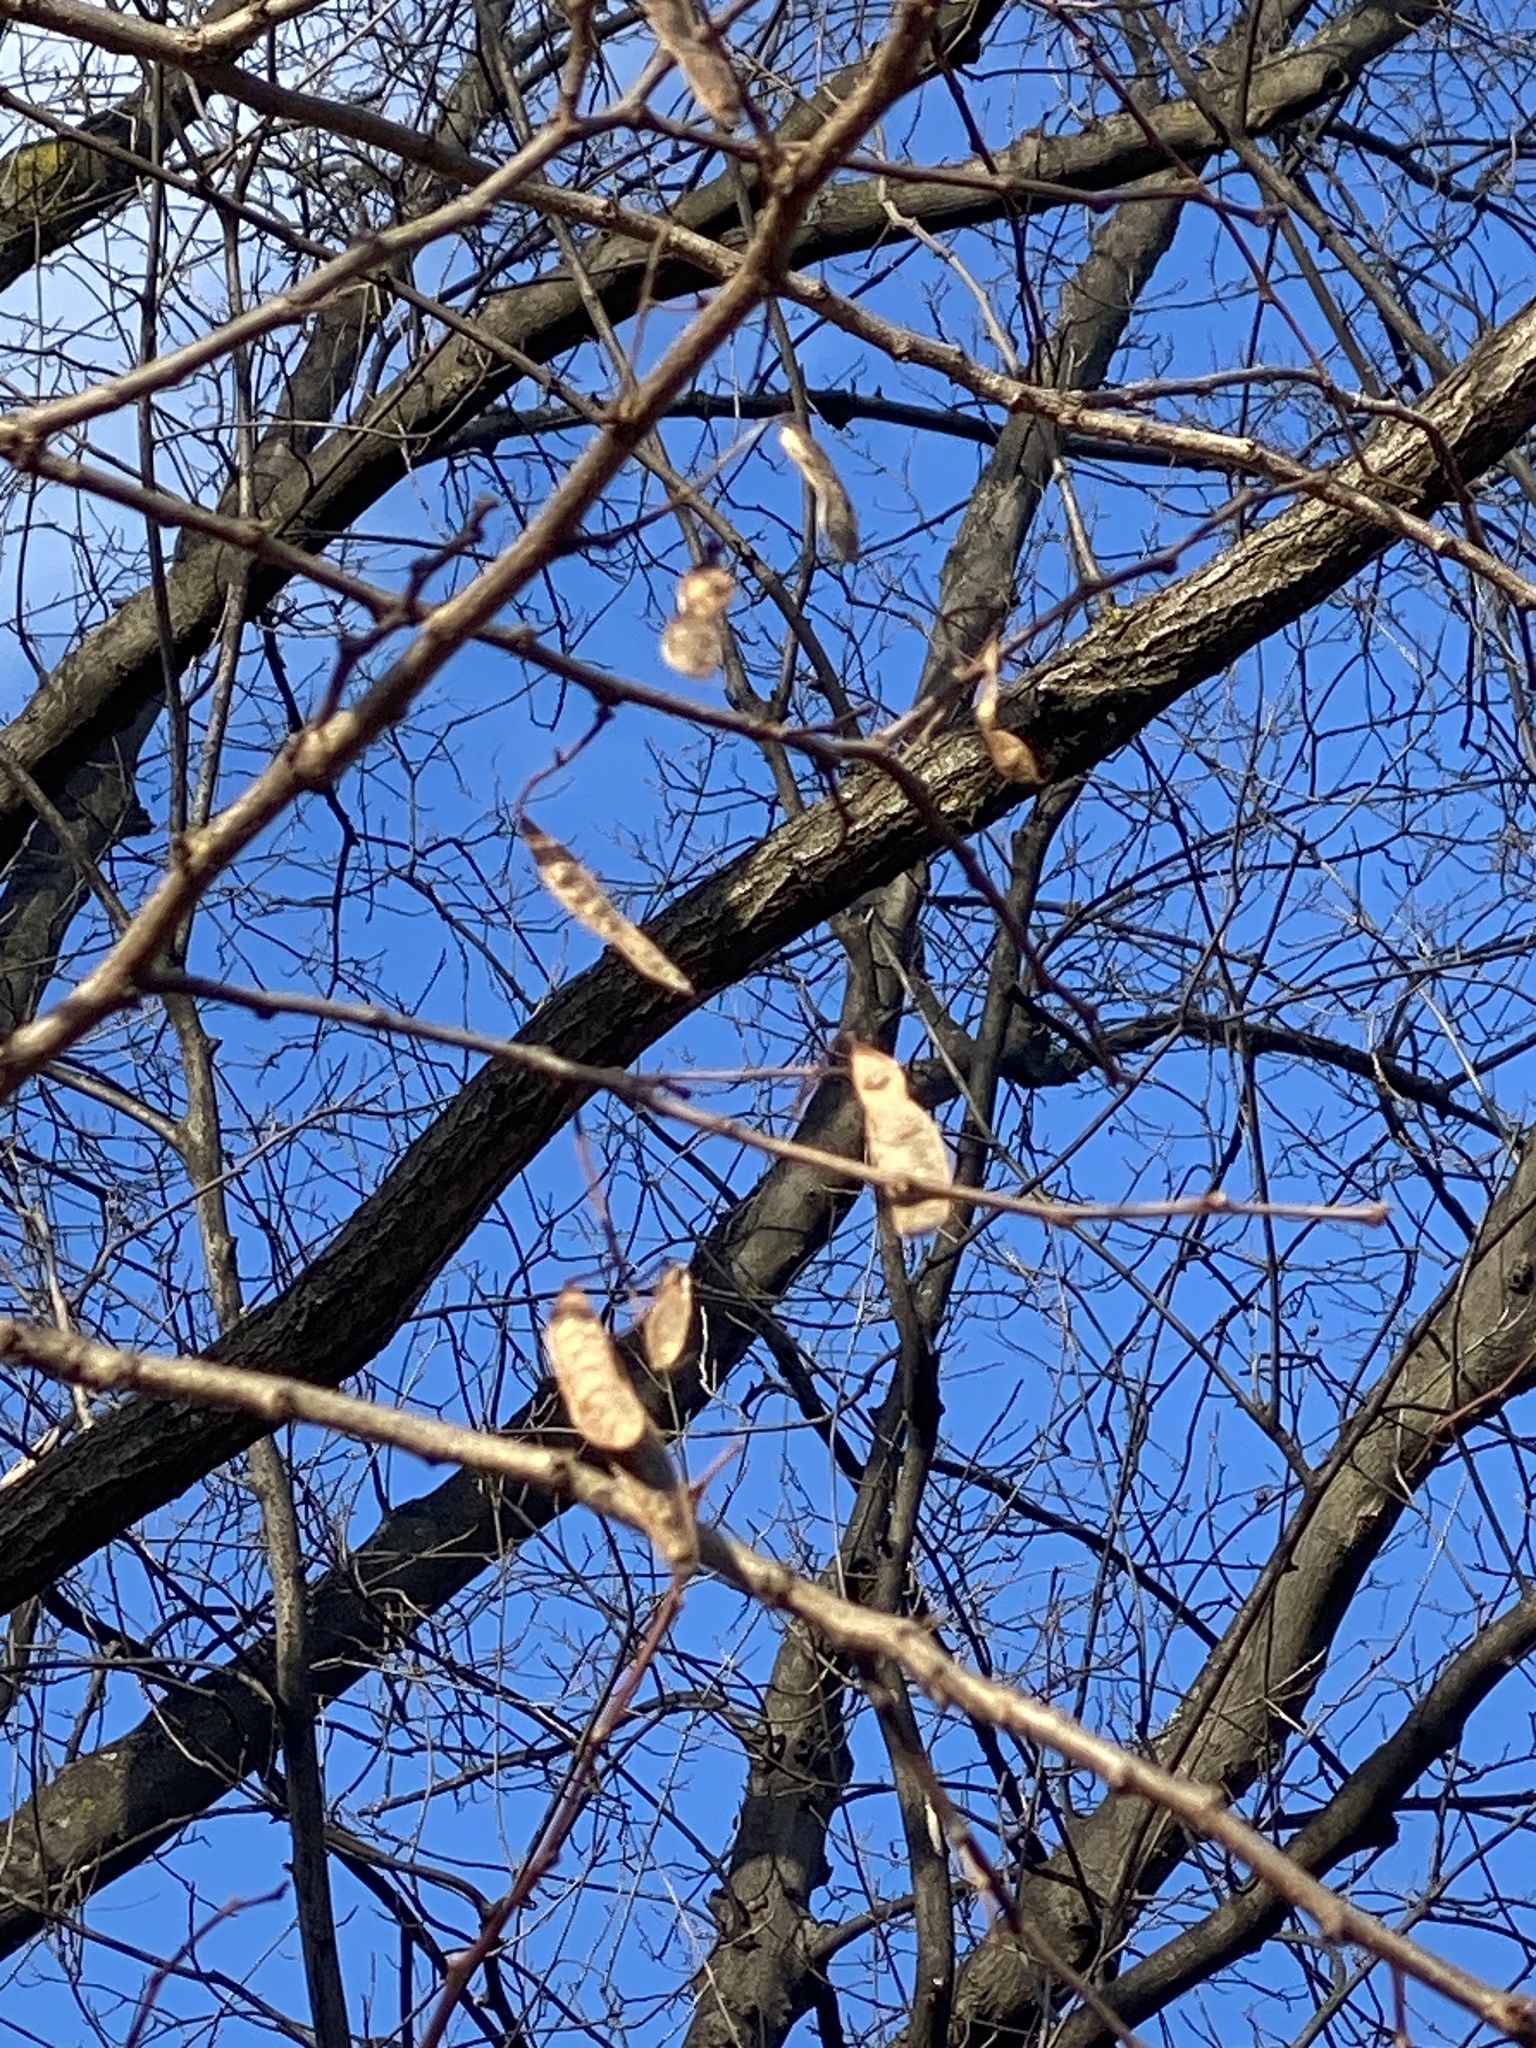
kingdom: Plantae
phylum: Tracheophyta
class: Magnoliopsida
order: Fabales
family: Fabaceae
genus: Robinia
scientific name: Robinia pseudoacacia
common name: Black locust
